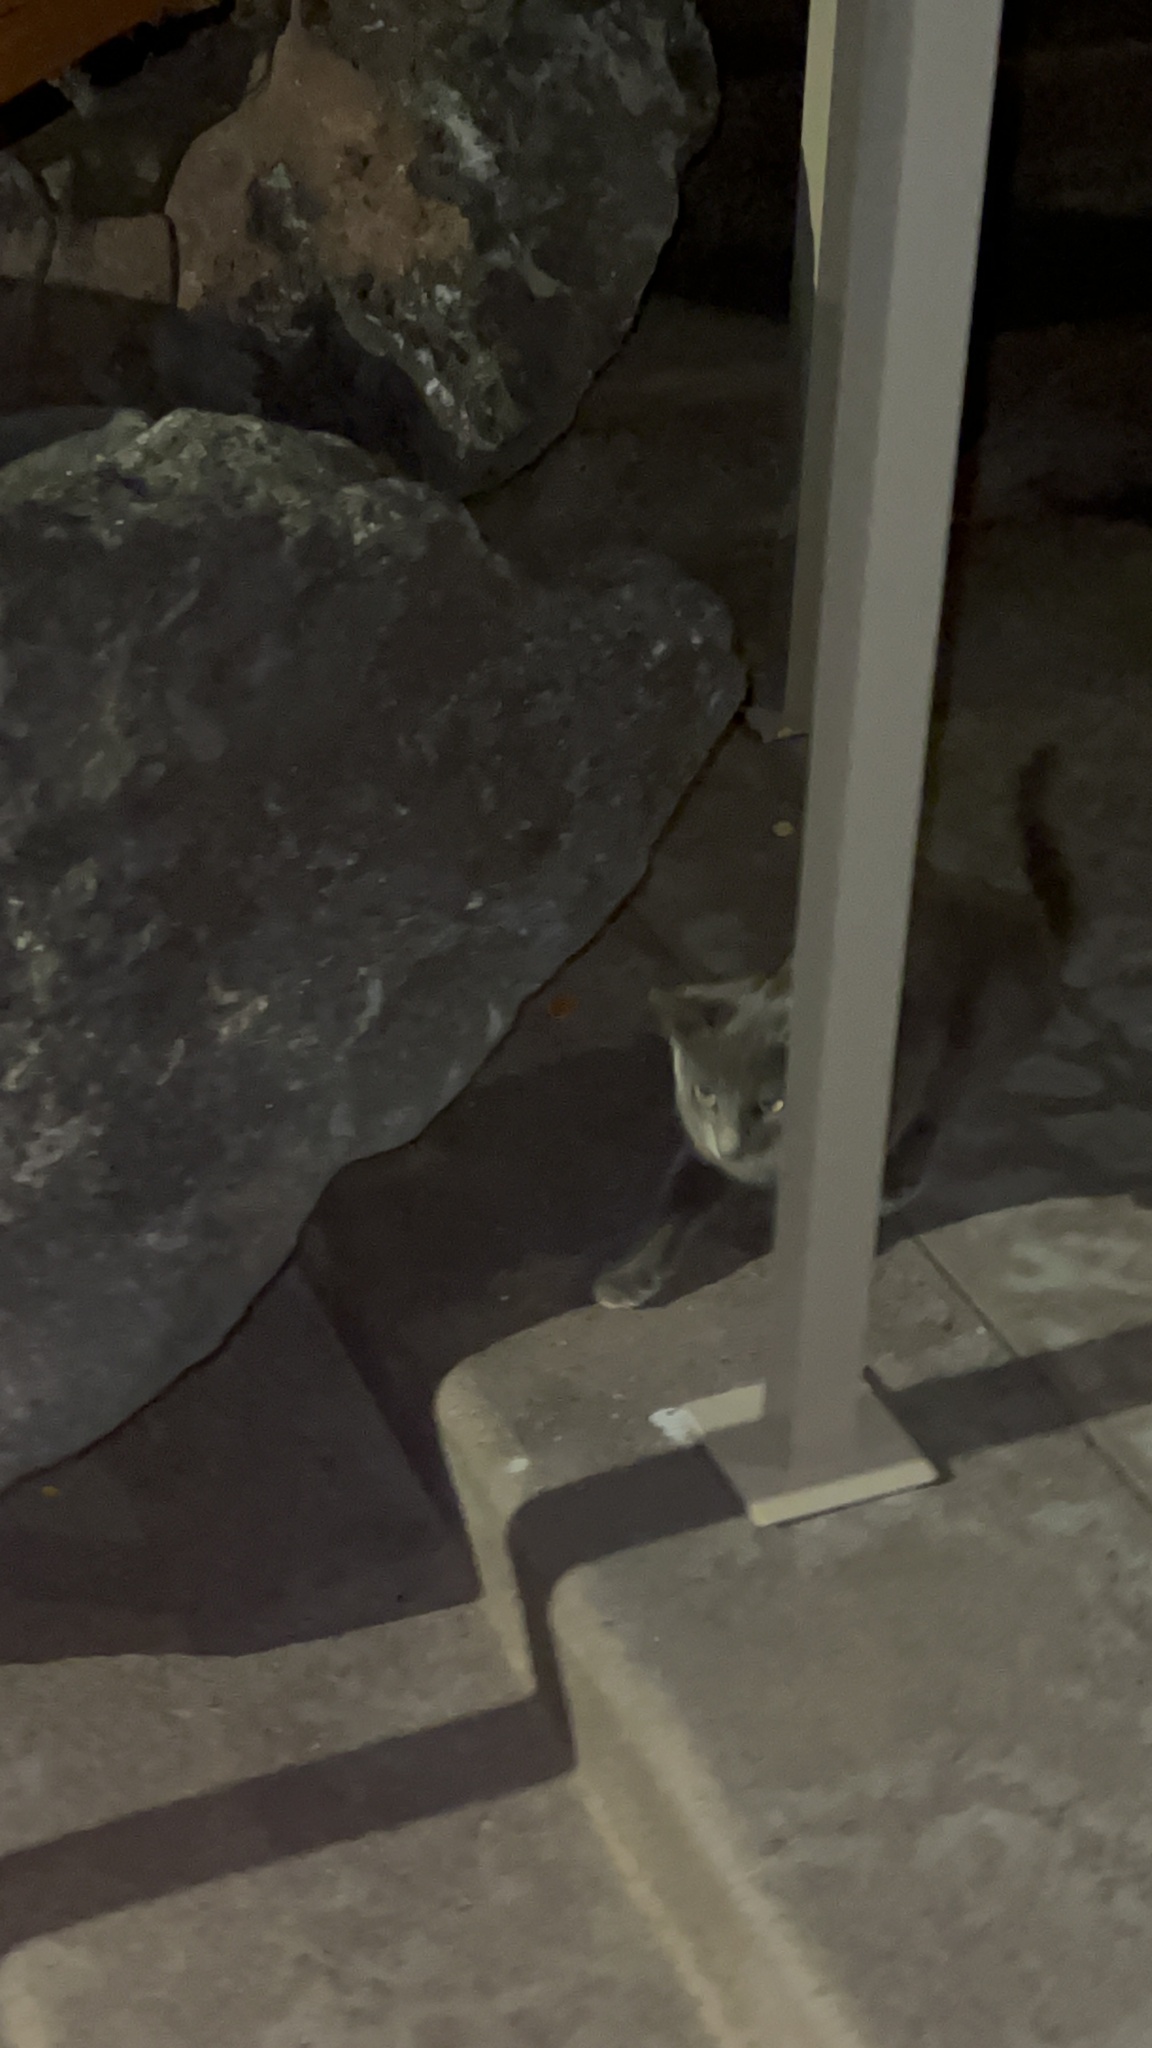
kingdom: Animalia
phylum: Chordata
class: Mammalia
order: Carnivora
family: Felidae
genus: Felis
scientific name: Felis catus
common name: Domestic cat
